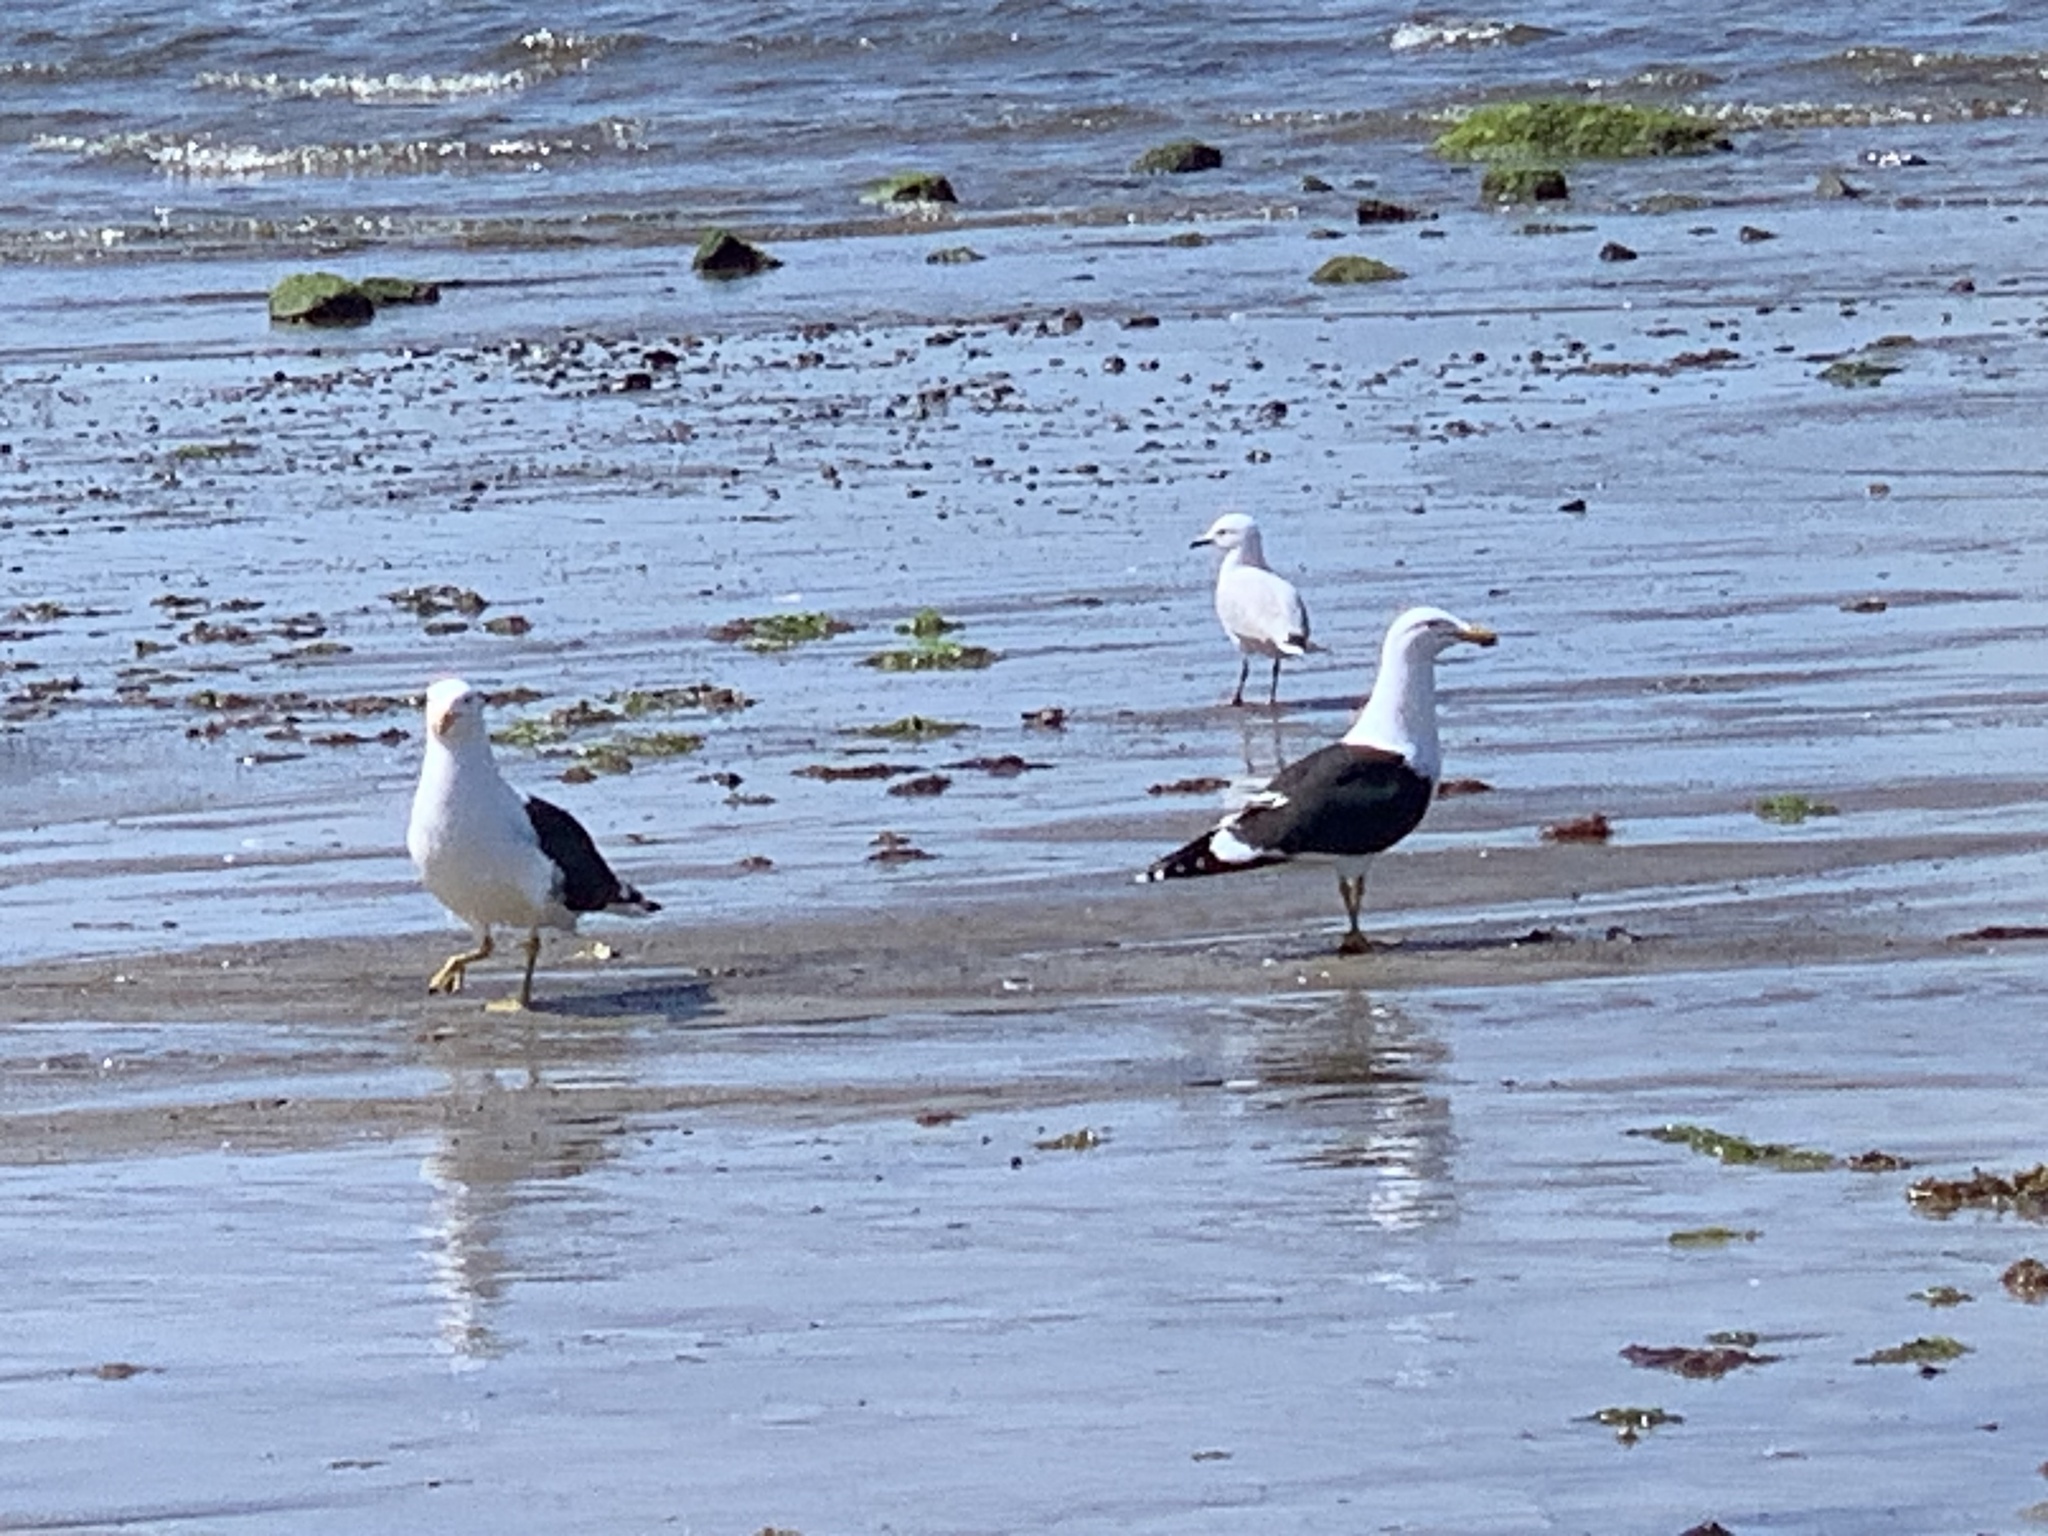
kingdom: Animalia
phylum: Chordata
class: Aves
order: Charadriiformes
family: Laridae
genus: Larus
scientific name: Larus dominicanus
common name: Kelp gull
